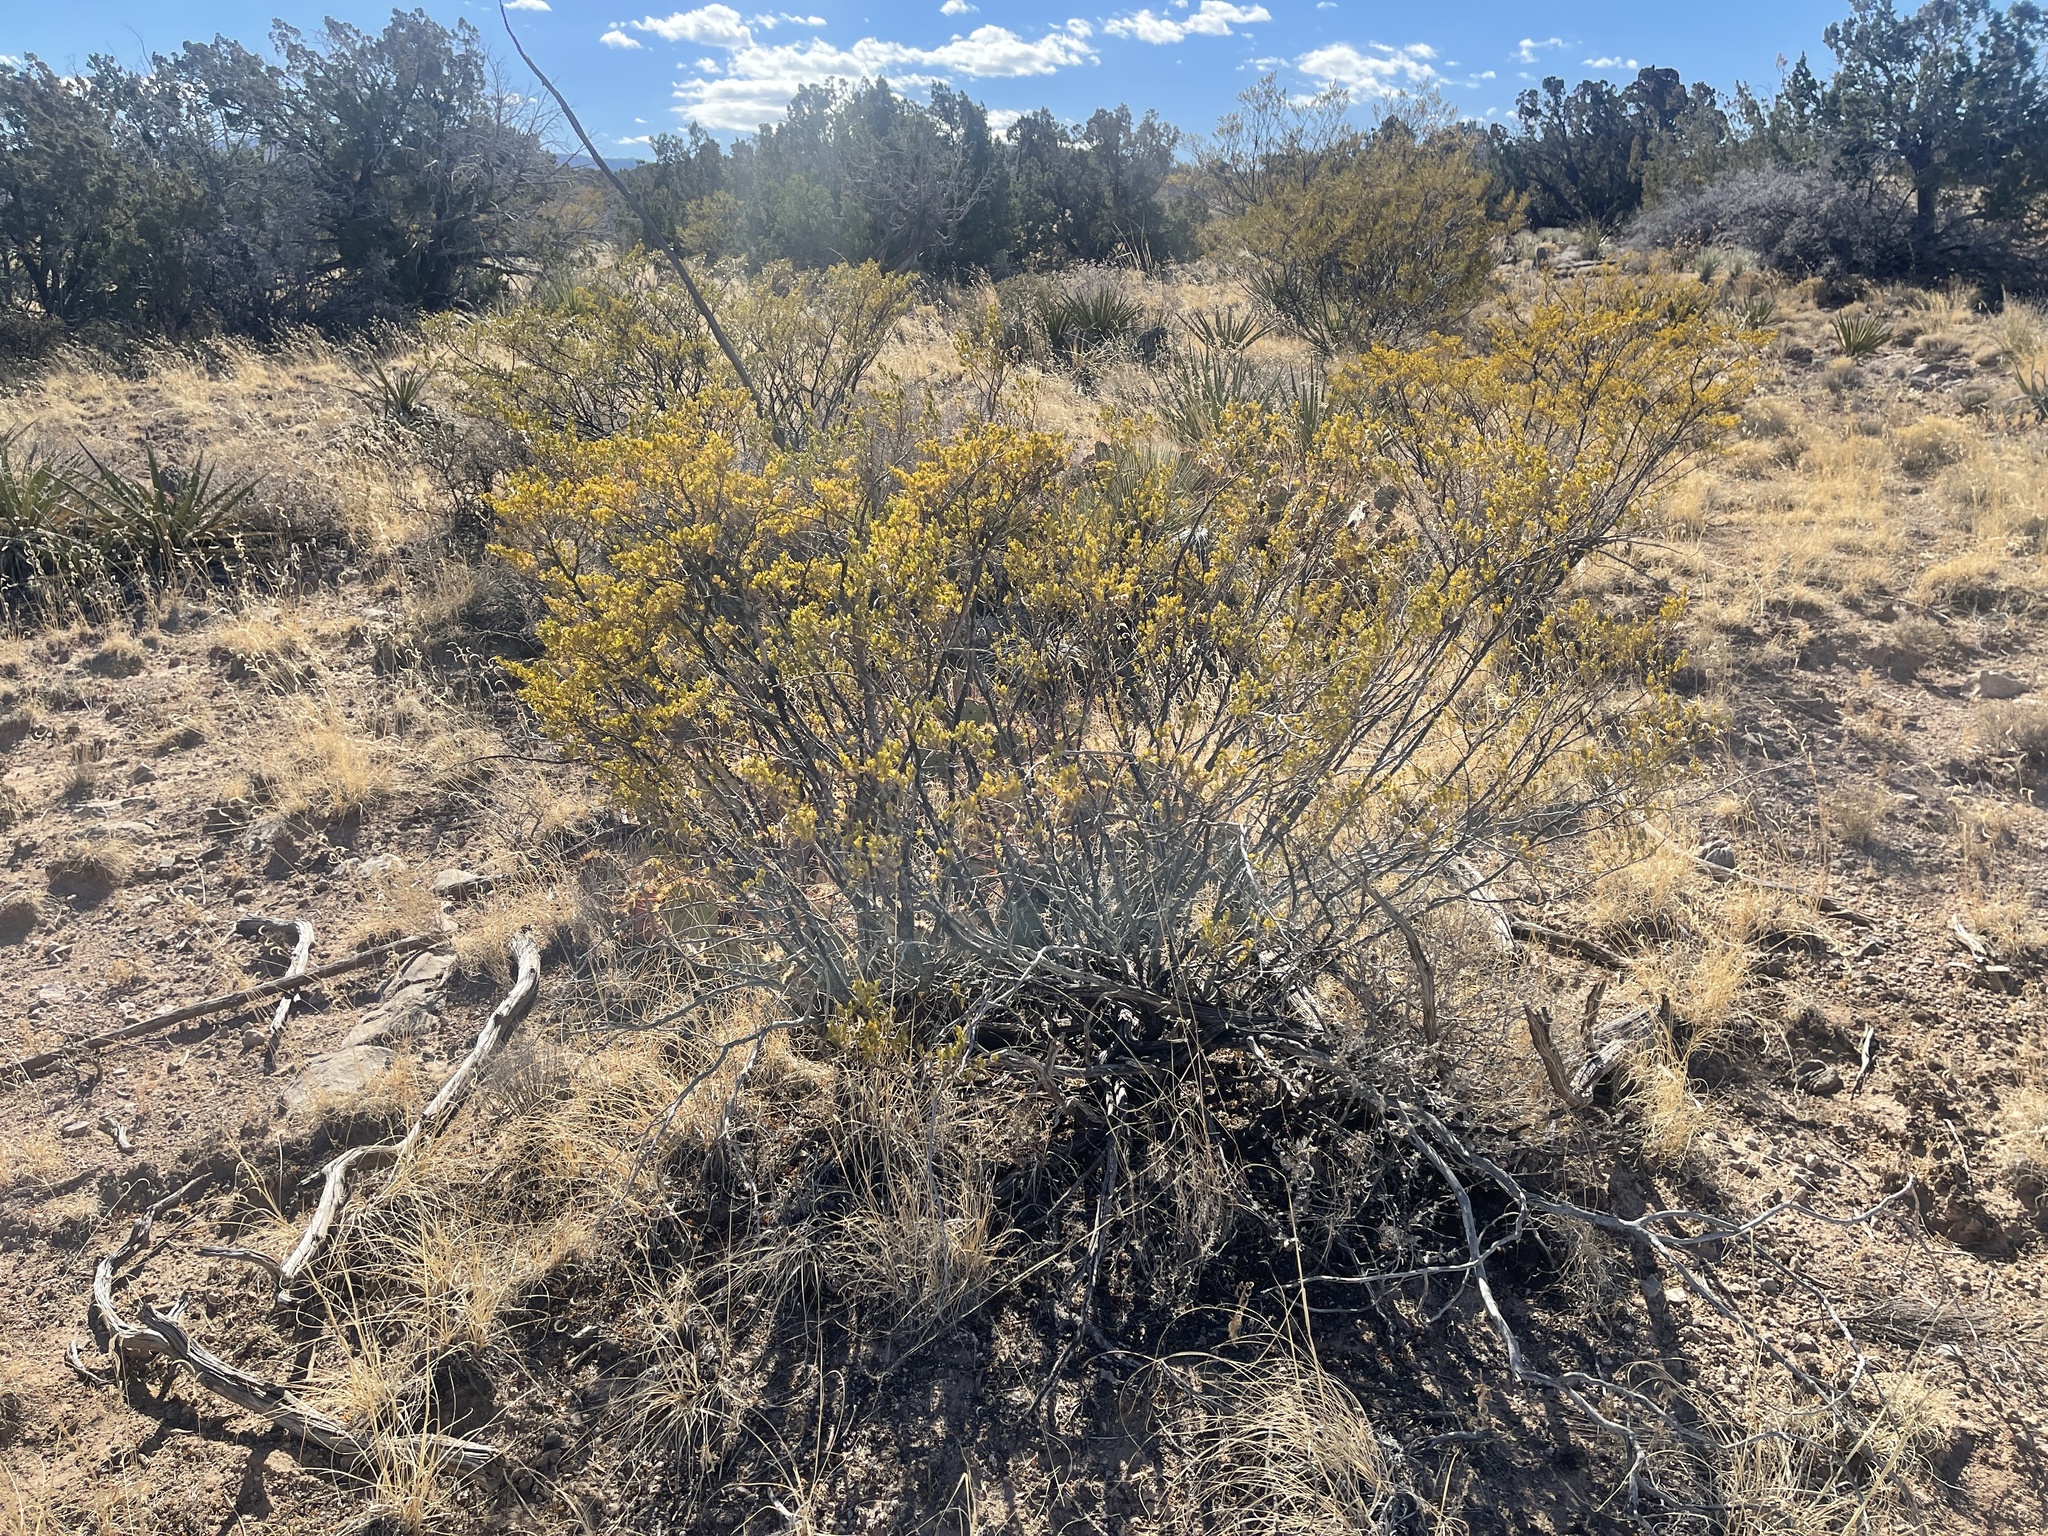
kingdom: Plantae
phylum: Tracheophyta
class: Magnoliopsida
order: Zygophyllales
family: Zygophyllaceae
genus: Larrea
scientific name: Larrea tridentata
